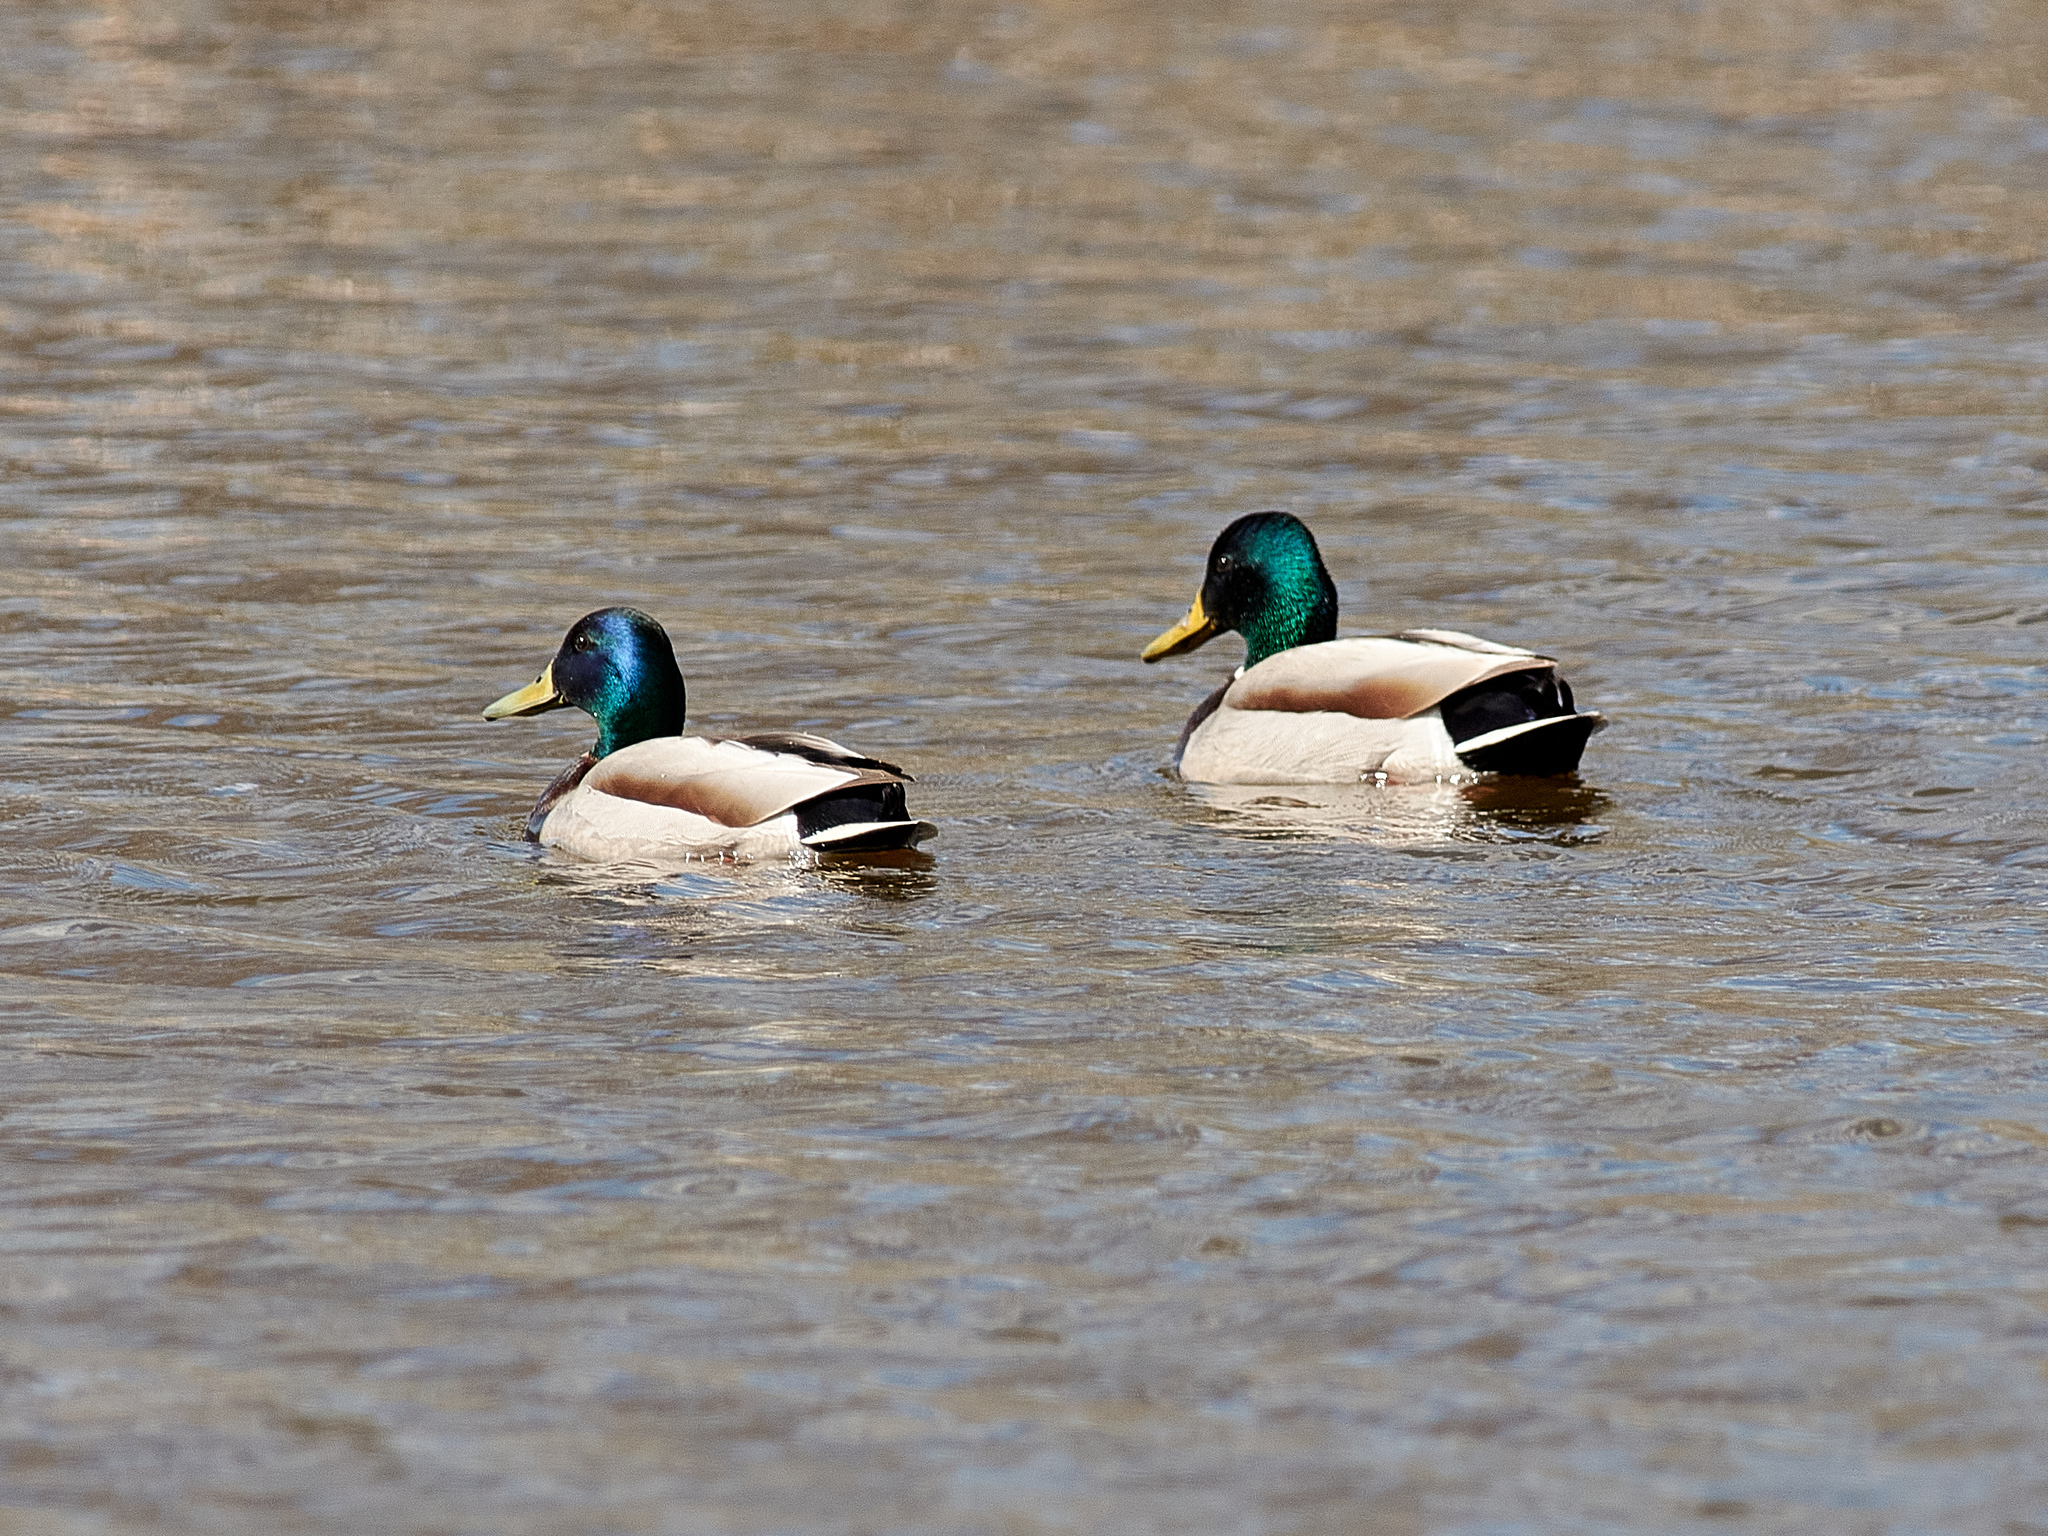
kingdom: Animalia
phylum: Chordata
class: Aves
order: Anseriformes
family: Anatidae
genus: Anas
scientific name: Anas platyrhynchos
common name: Mallard
